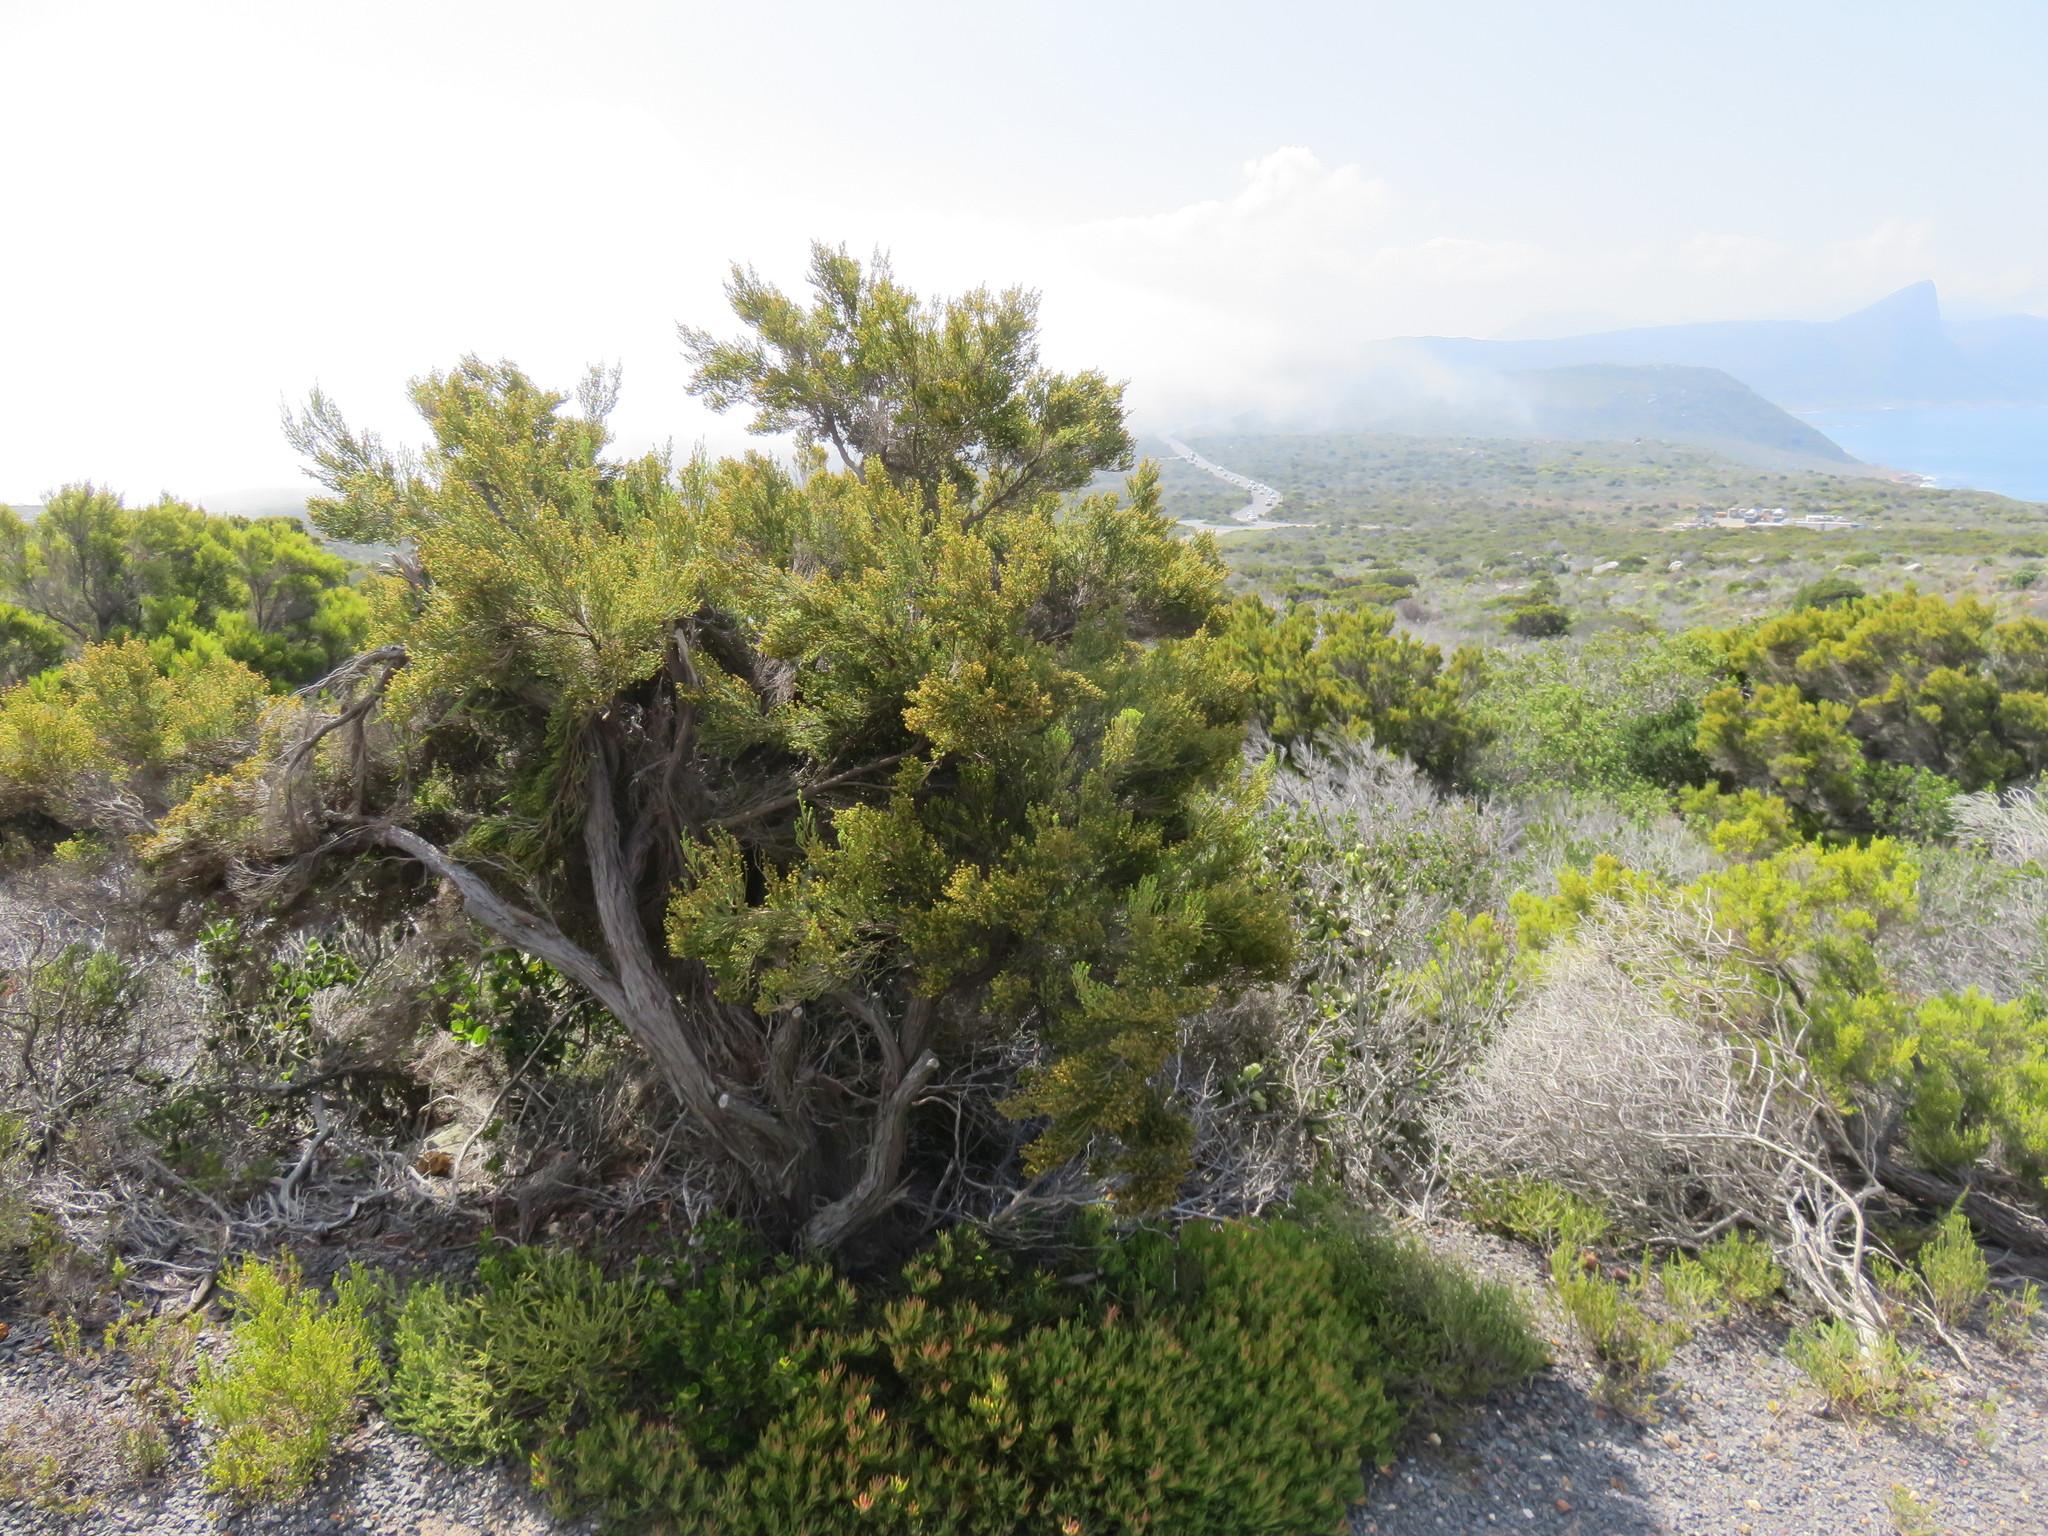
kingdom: Plantae
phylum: Tracheophyta
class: Magnoliopsida
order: Ericales
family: Ericaceae
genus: Erica
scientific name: Erica tristis
